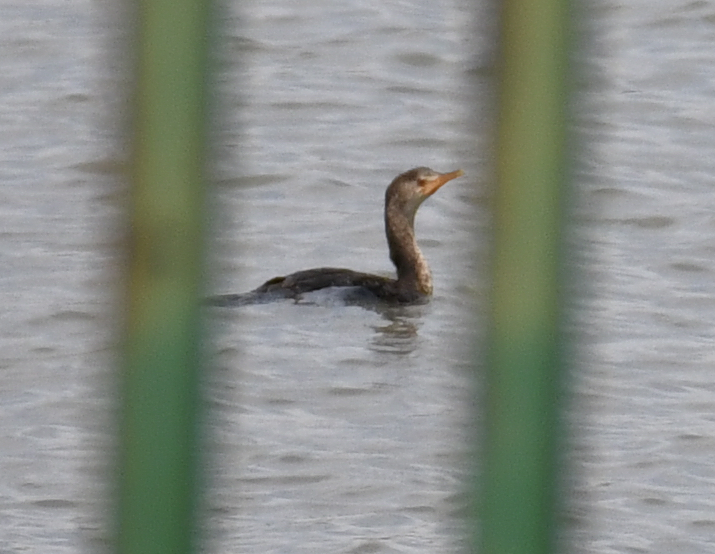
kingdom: Animalia
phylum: Chordata
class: Aves
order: Suliformes
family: Phalacrocoracidae
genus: Microcarbo
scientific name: Microcarbo africanus
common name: Long-tailed cormorant
